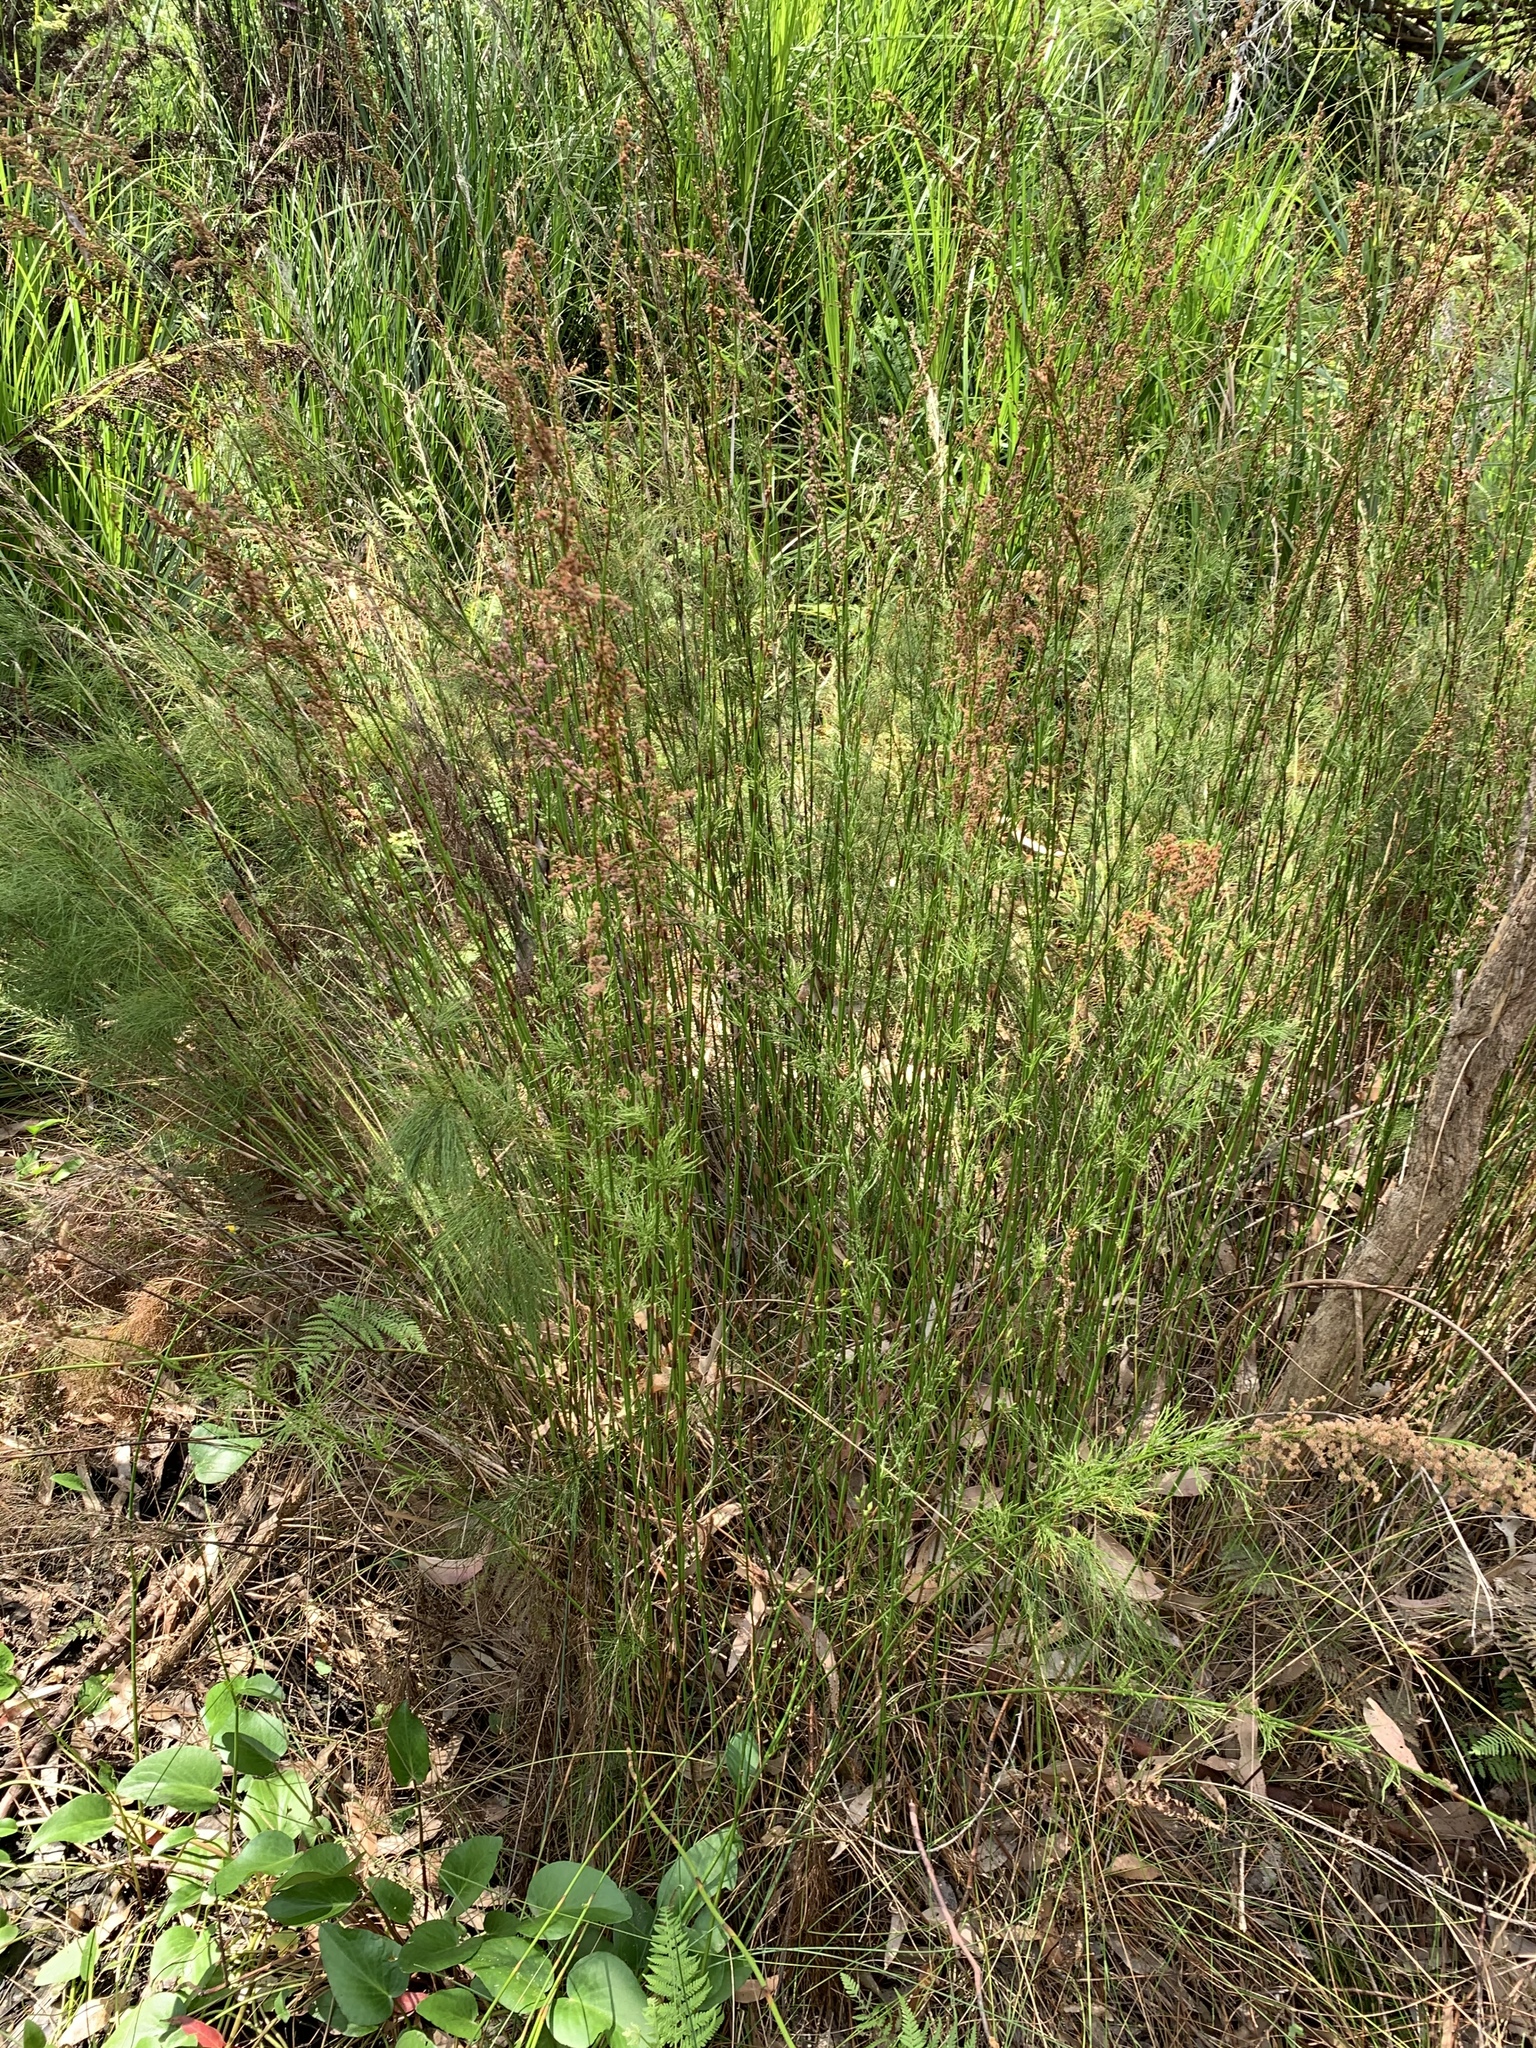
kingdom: Plantae
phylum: Tracheophyta
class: Liliopsida
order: Poales
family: Restionaceae
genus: Baloskion
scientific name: Baloskion tetraphyllum
